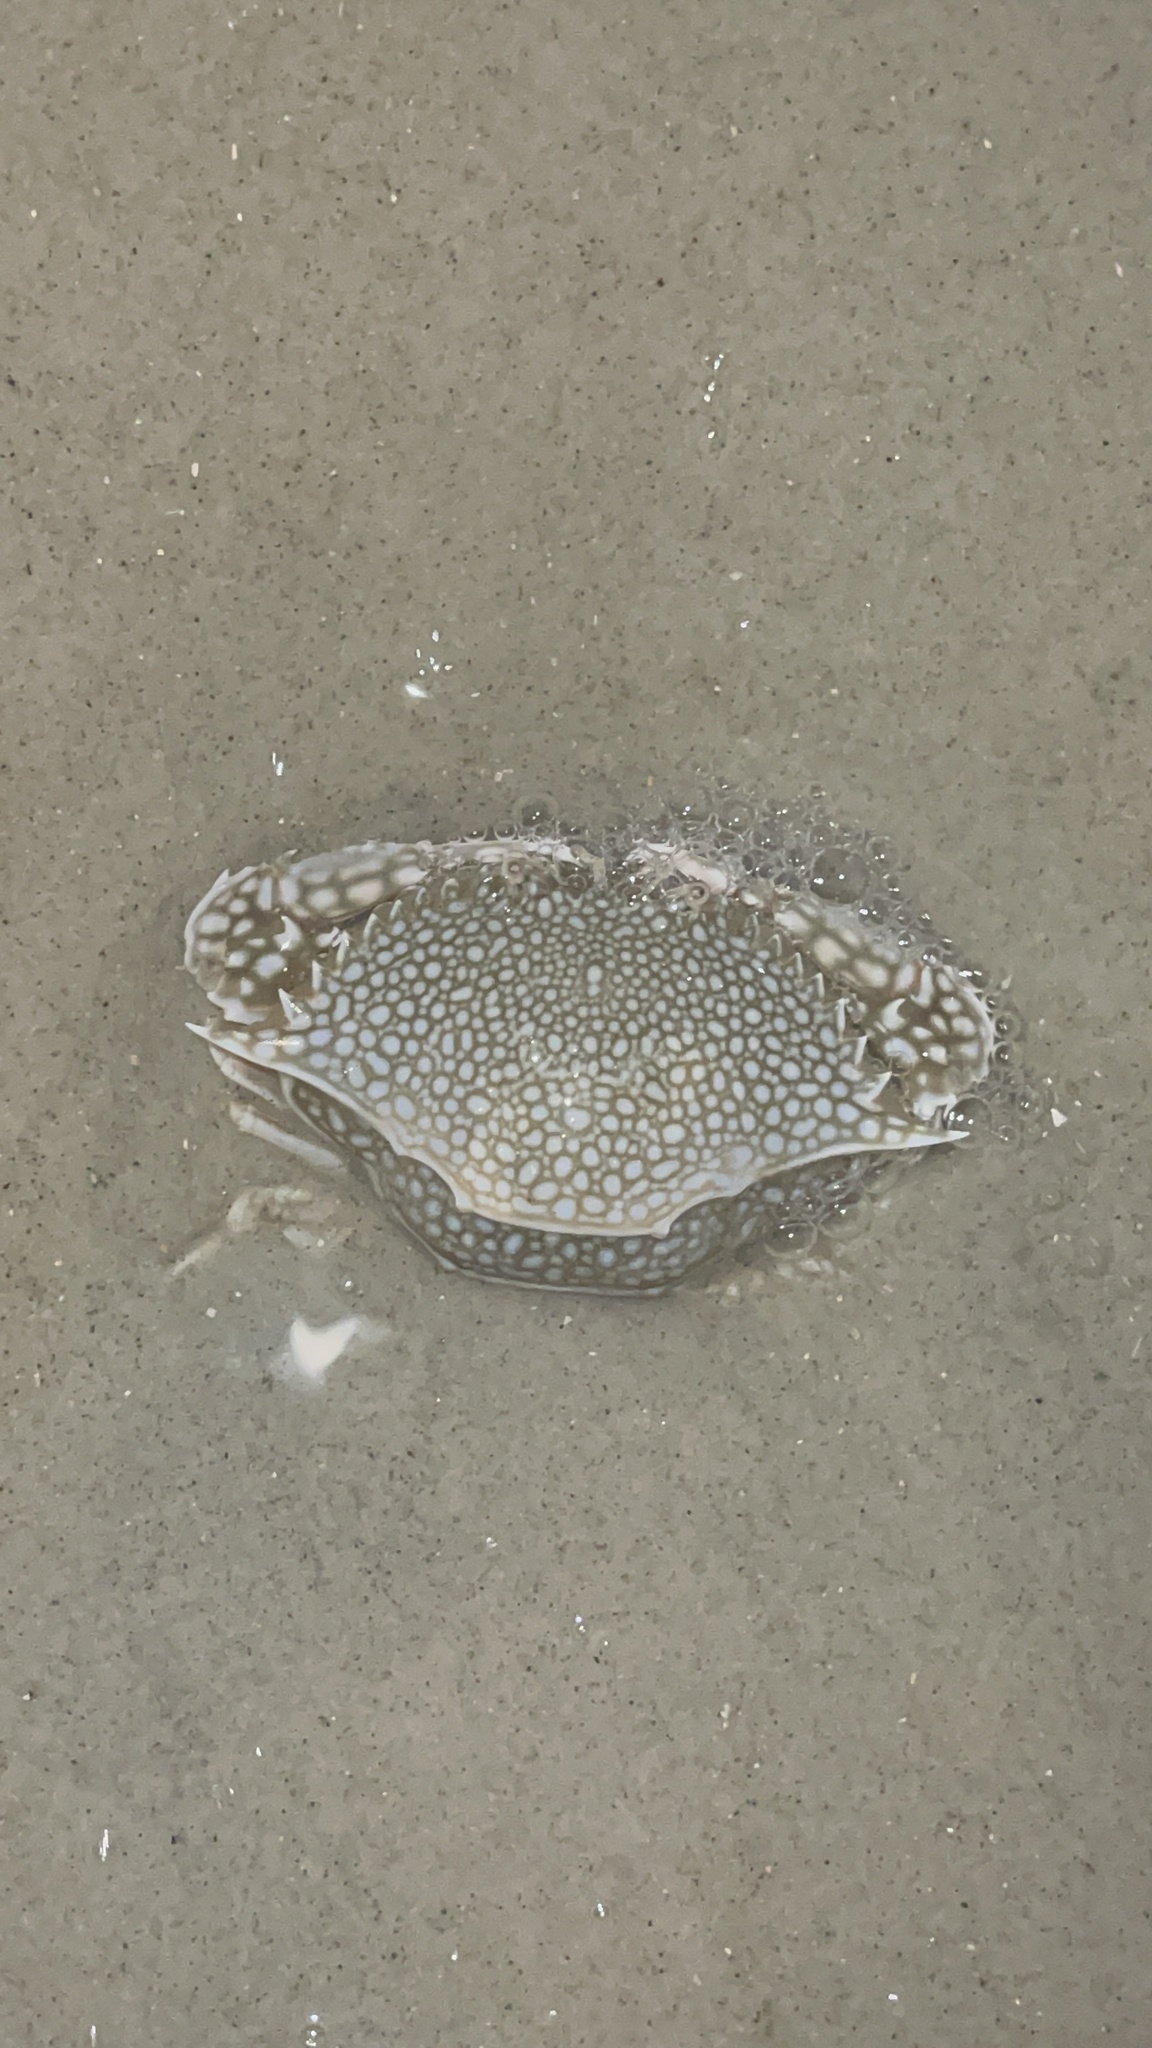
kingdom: Animalia
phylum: Arthropoda
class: Malacostraca
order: Decapoda
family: Portunidae
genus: Arenaeus
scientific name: Arenaeus cribrarius
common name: Speckled crab
